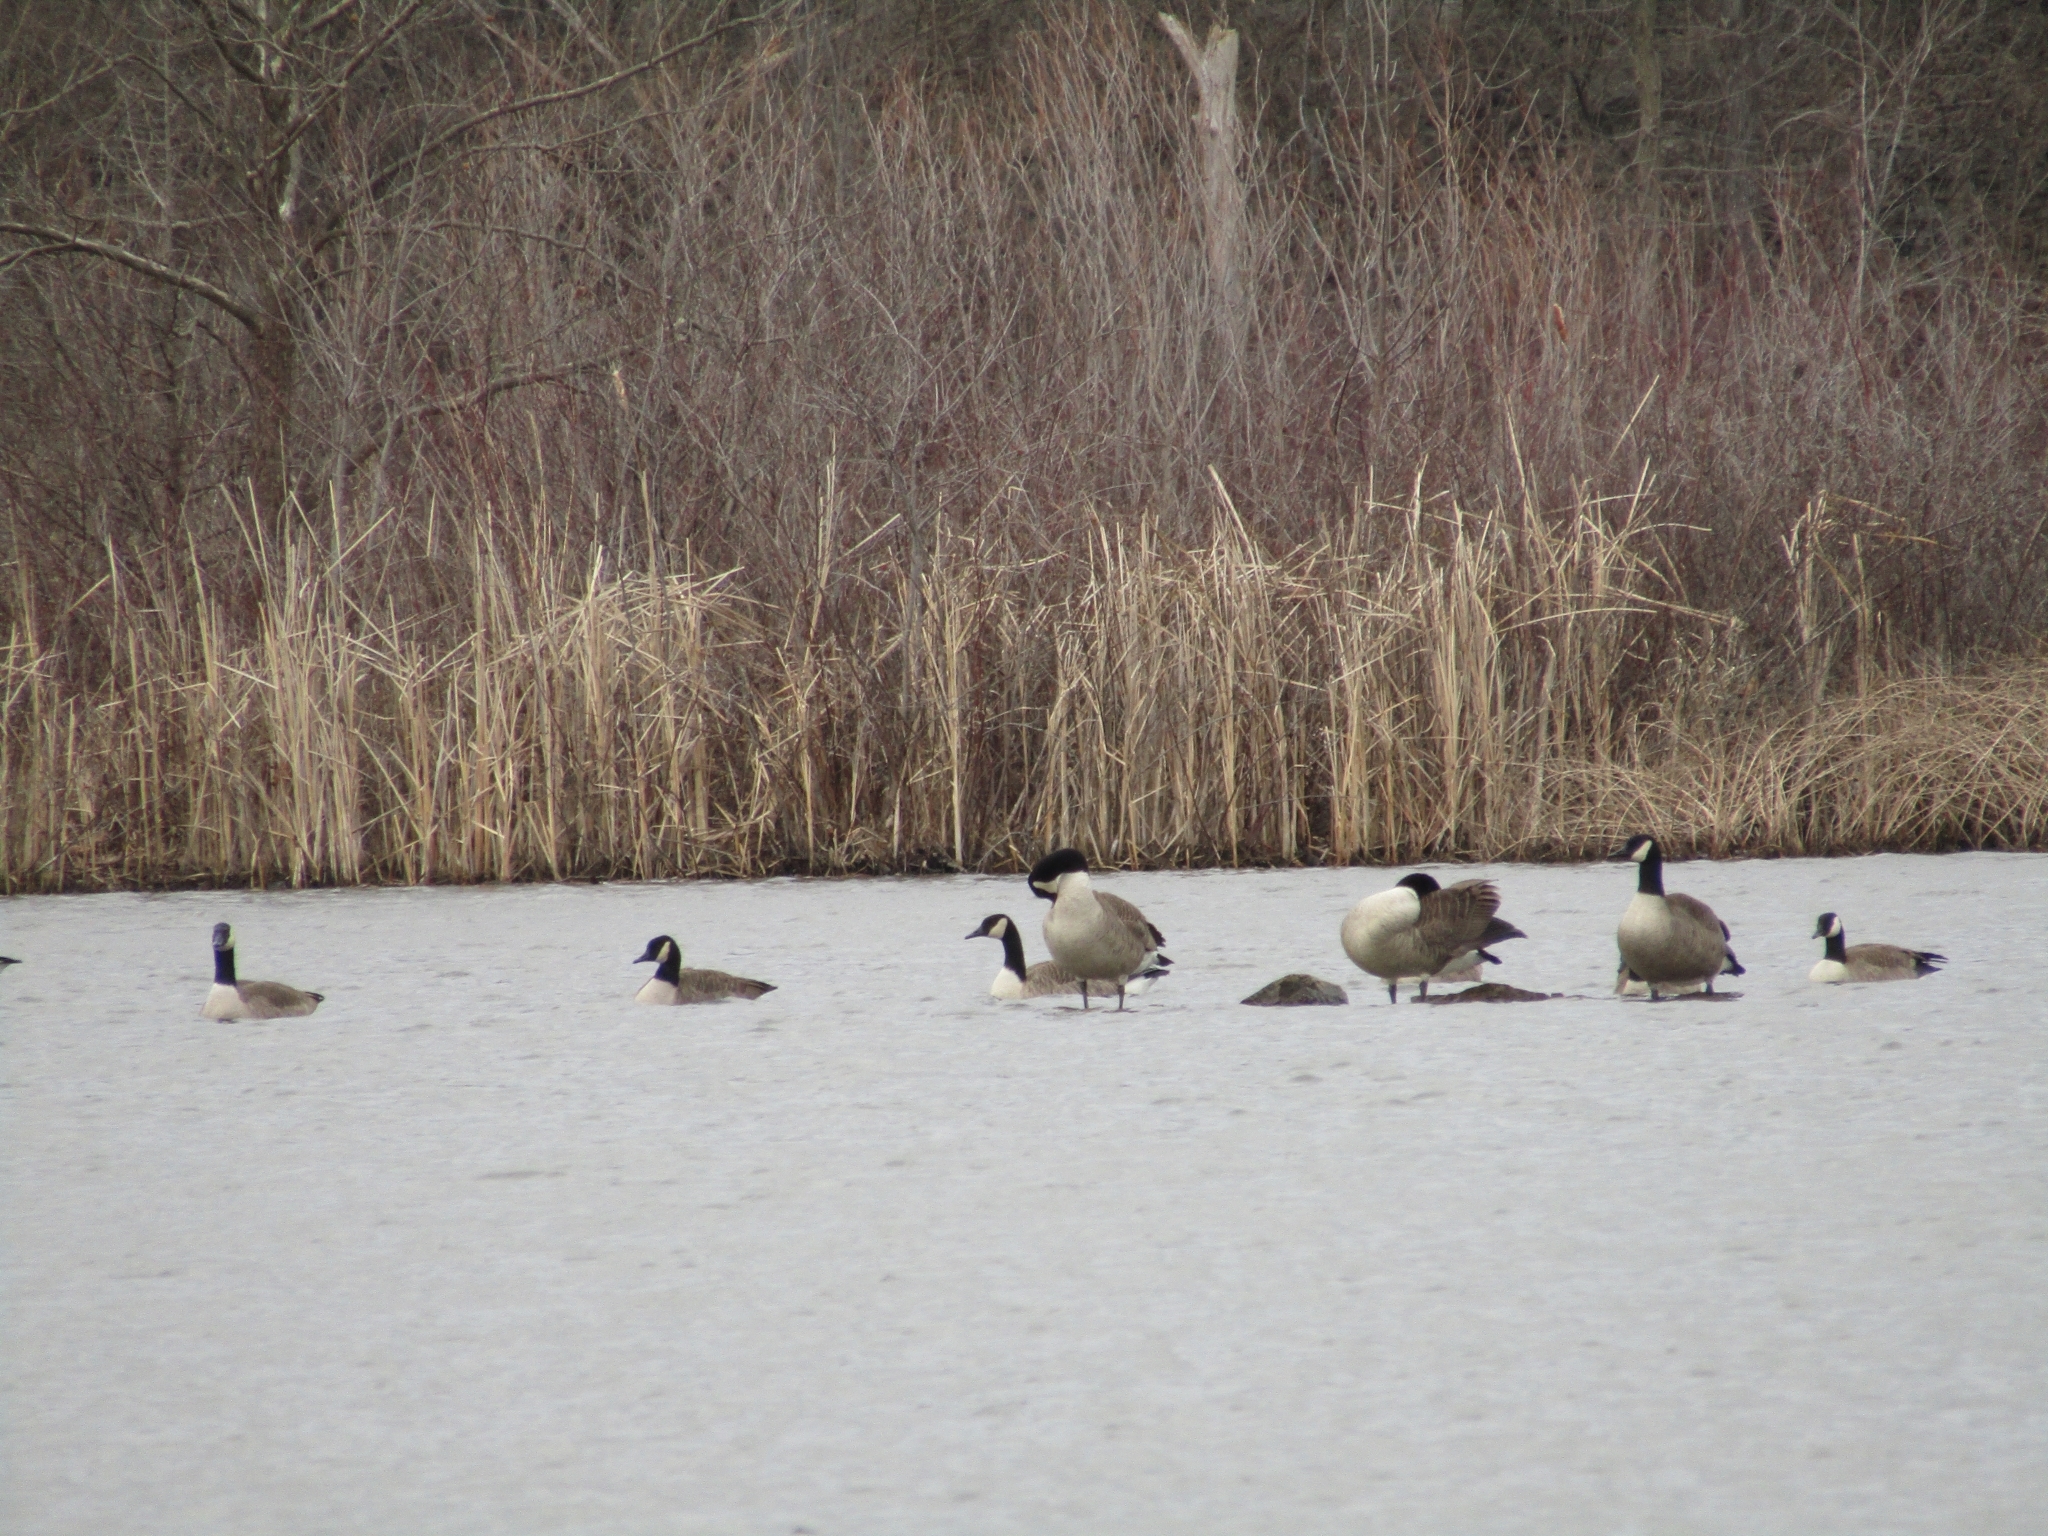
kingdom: Animalia
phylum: Chordata
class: Aves
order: Anseriformes
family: Anatidae
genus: Branta
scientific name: Branta canadensis
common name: Canada goose
